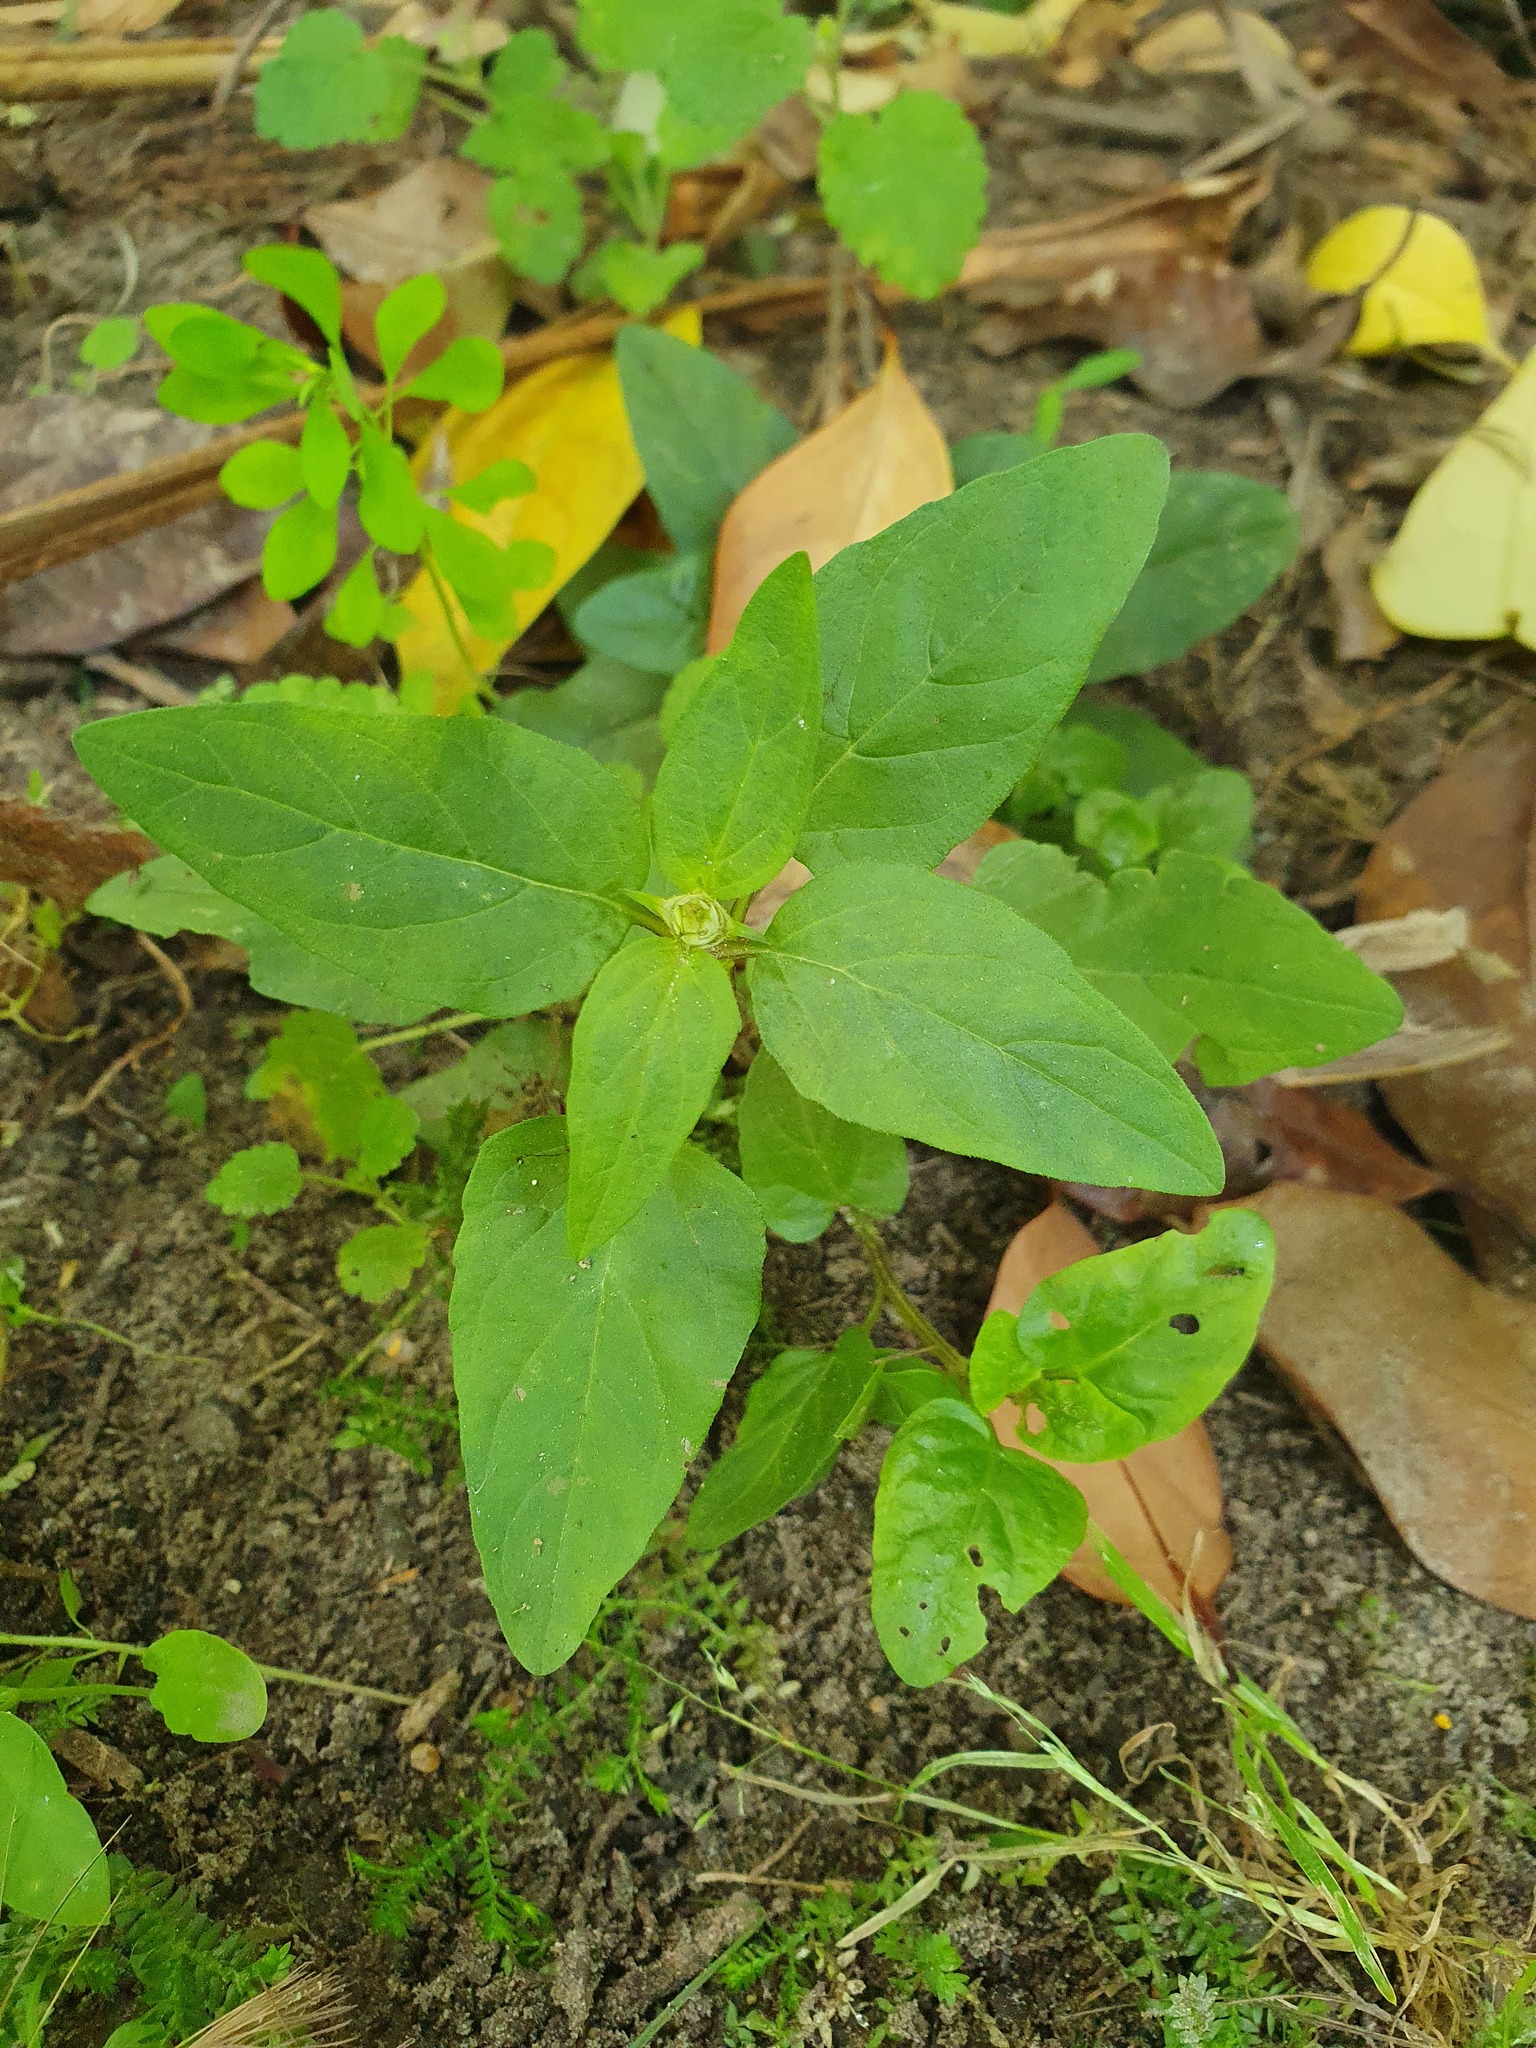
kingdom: Plantae
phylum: Tracheophyta
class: Magnoliopsida
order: Lamiales
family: Lamiaceae
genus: Prunella
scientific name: Prunella vulgaris
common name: Heal-all
